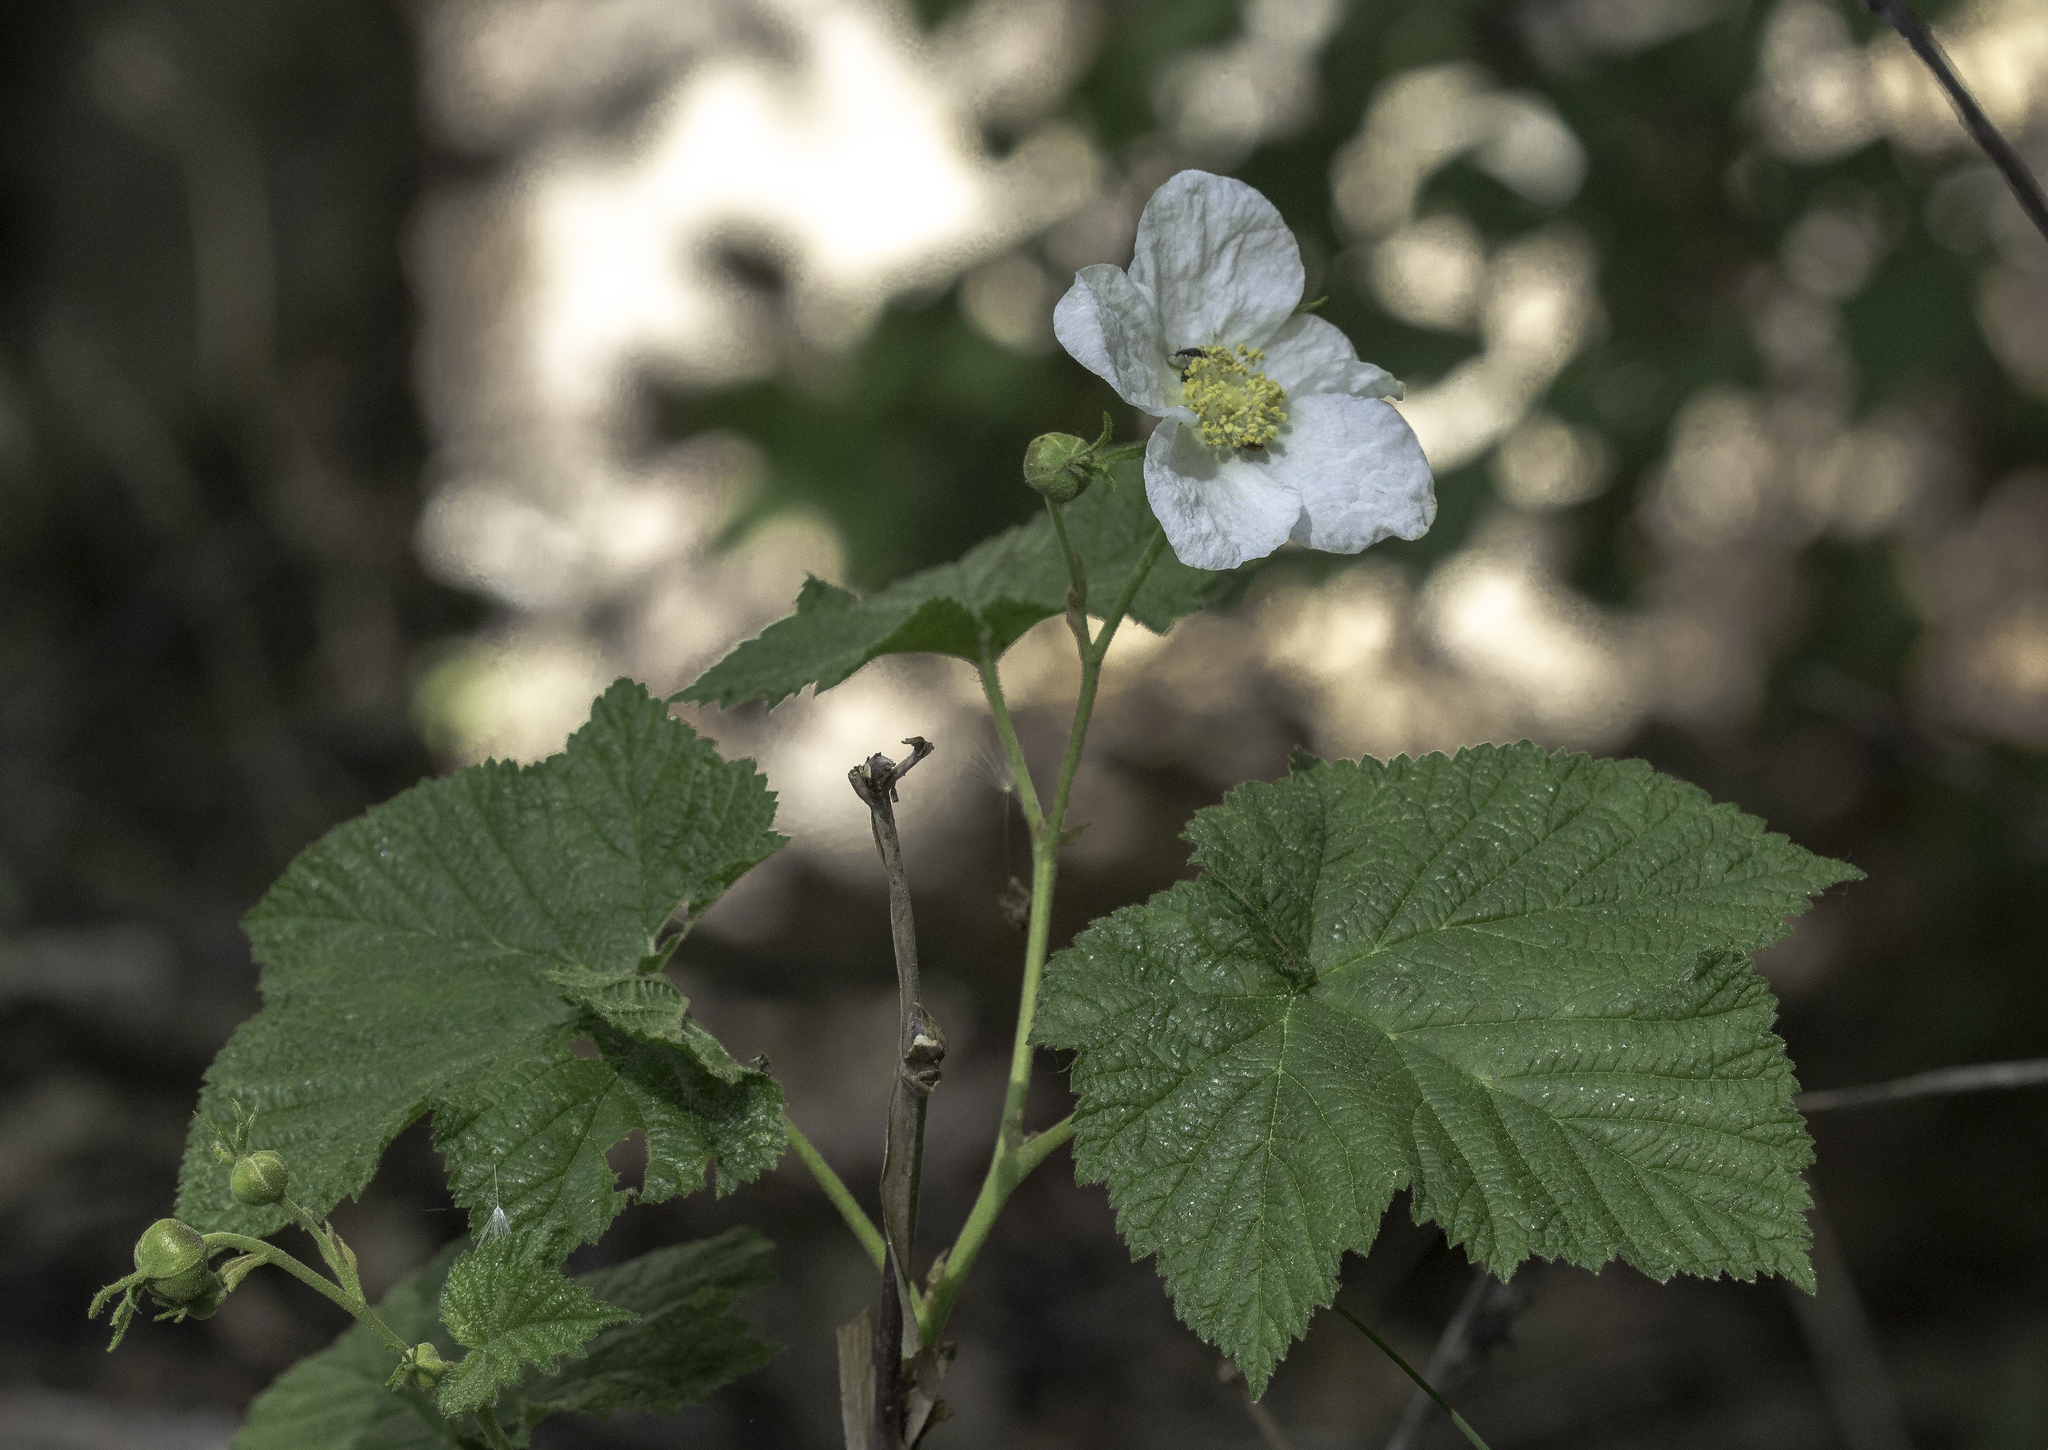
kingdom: Plantae
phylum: Tracheophyta
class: Magnoliopsida
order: Rosales
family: Rosaceae
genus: Rubus
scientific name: Rubus parviflorus
